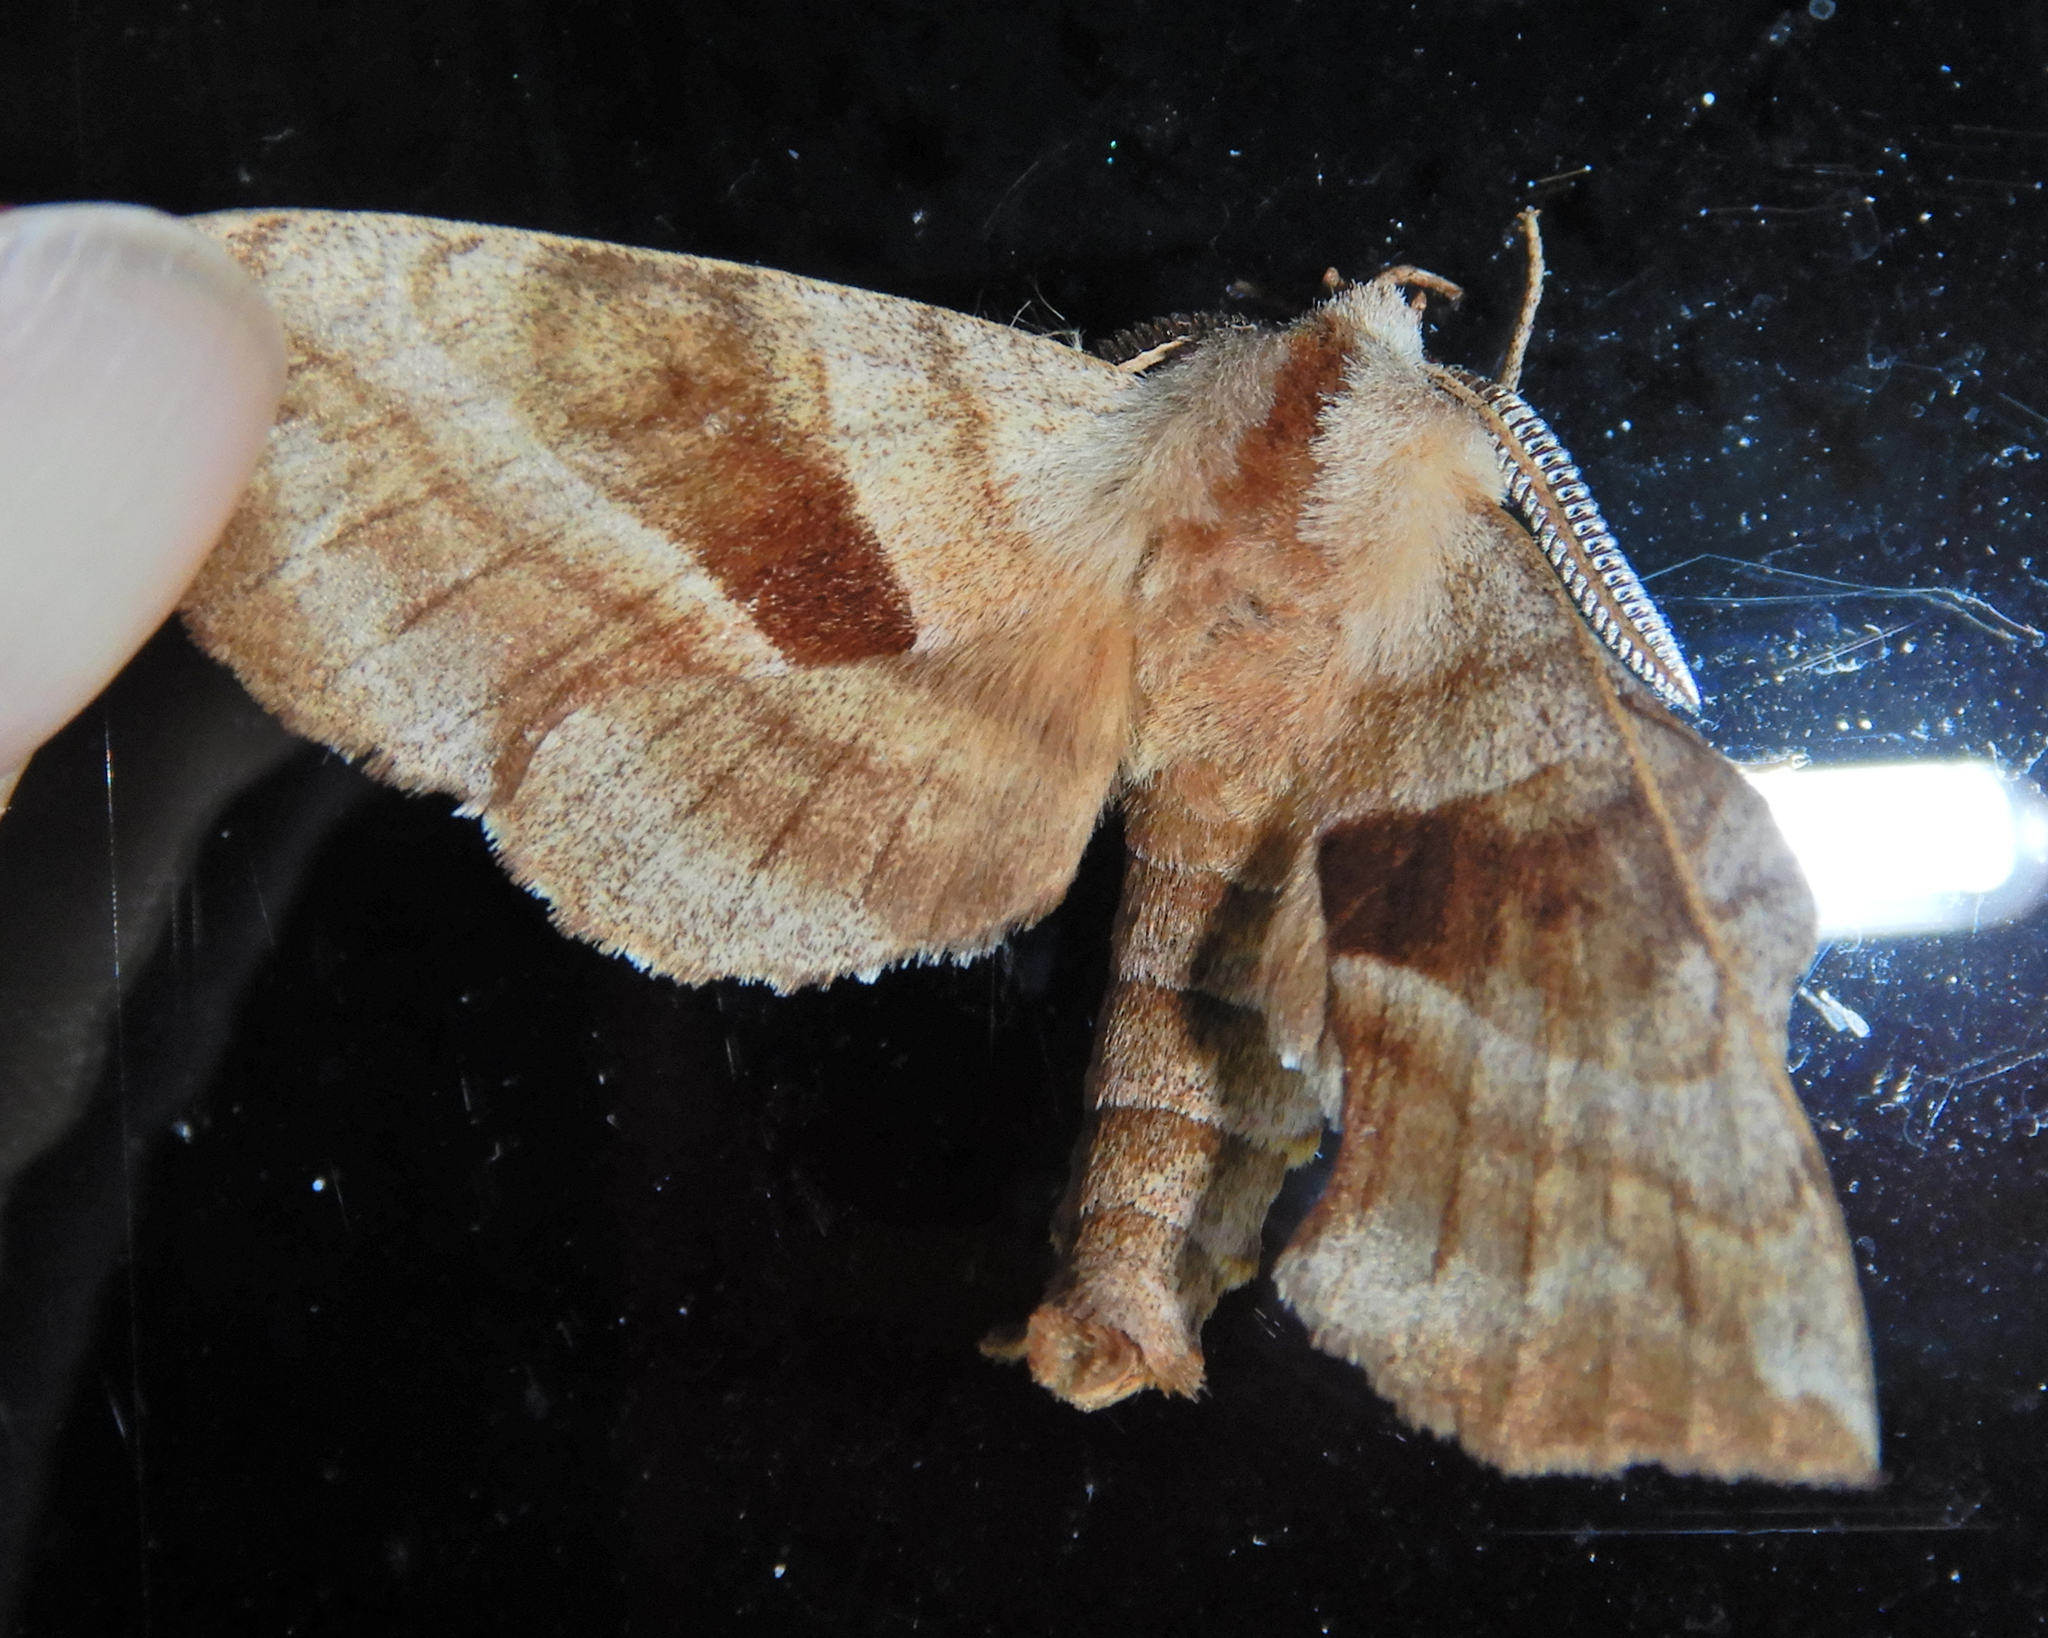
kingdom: Animalia
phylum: Arthropoda
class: Insecta
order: Lepidoptera
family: Sphingidae
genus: Amorpha
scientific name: Amorpha juglandis
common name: Walnut sphinx
